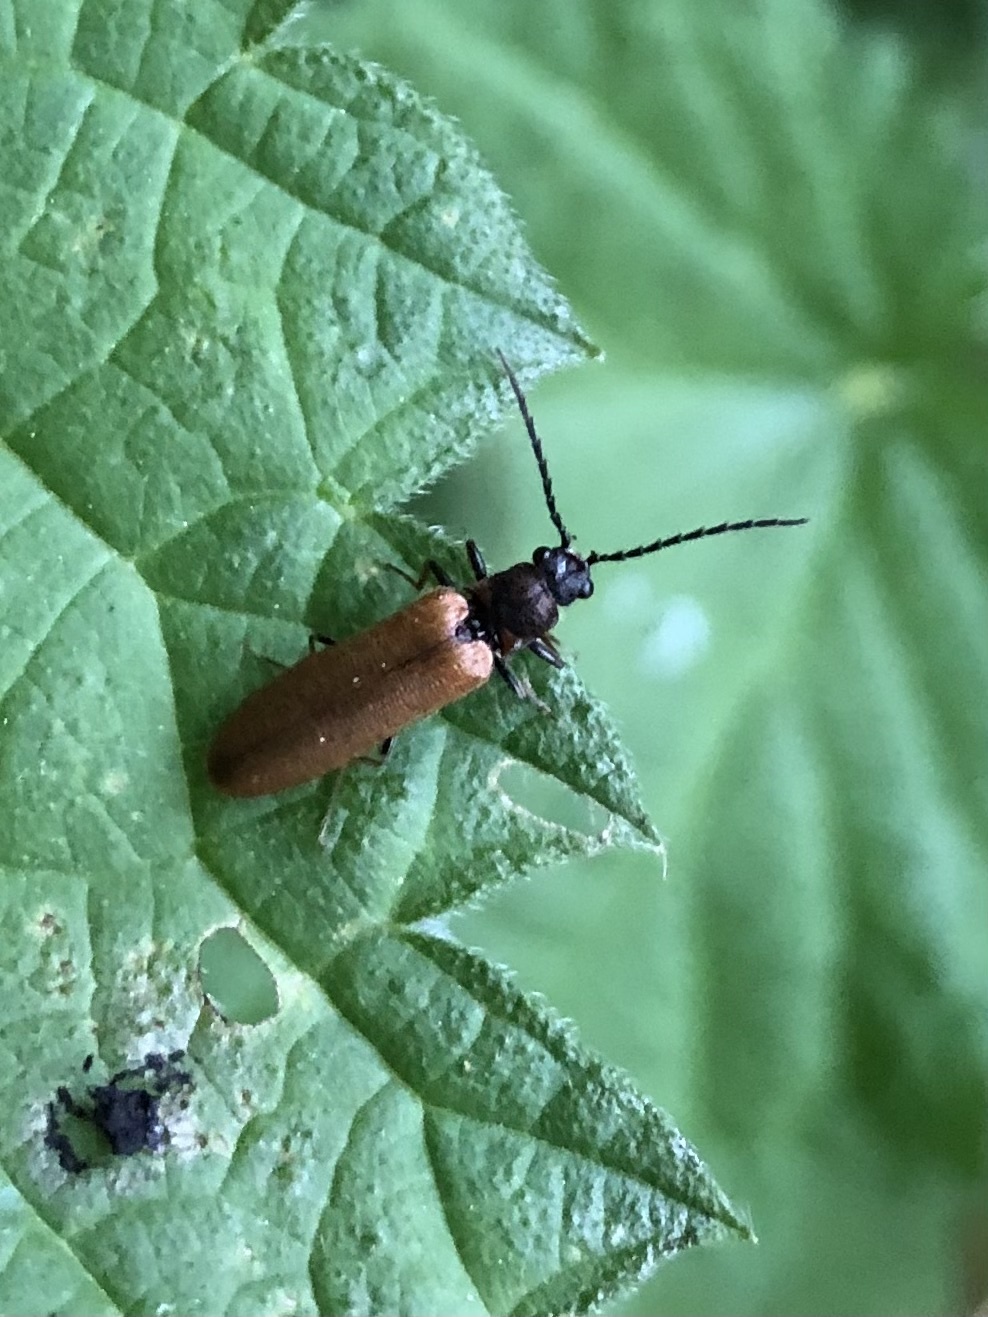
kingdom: Animalia
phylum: Arthropoda
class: Insecta
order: Coleoptera
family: Elateridae
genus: Denticollis
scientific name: Denticollis linearis
